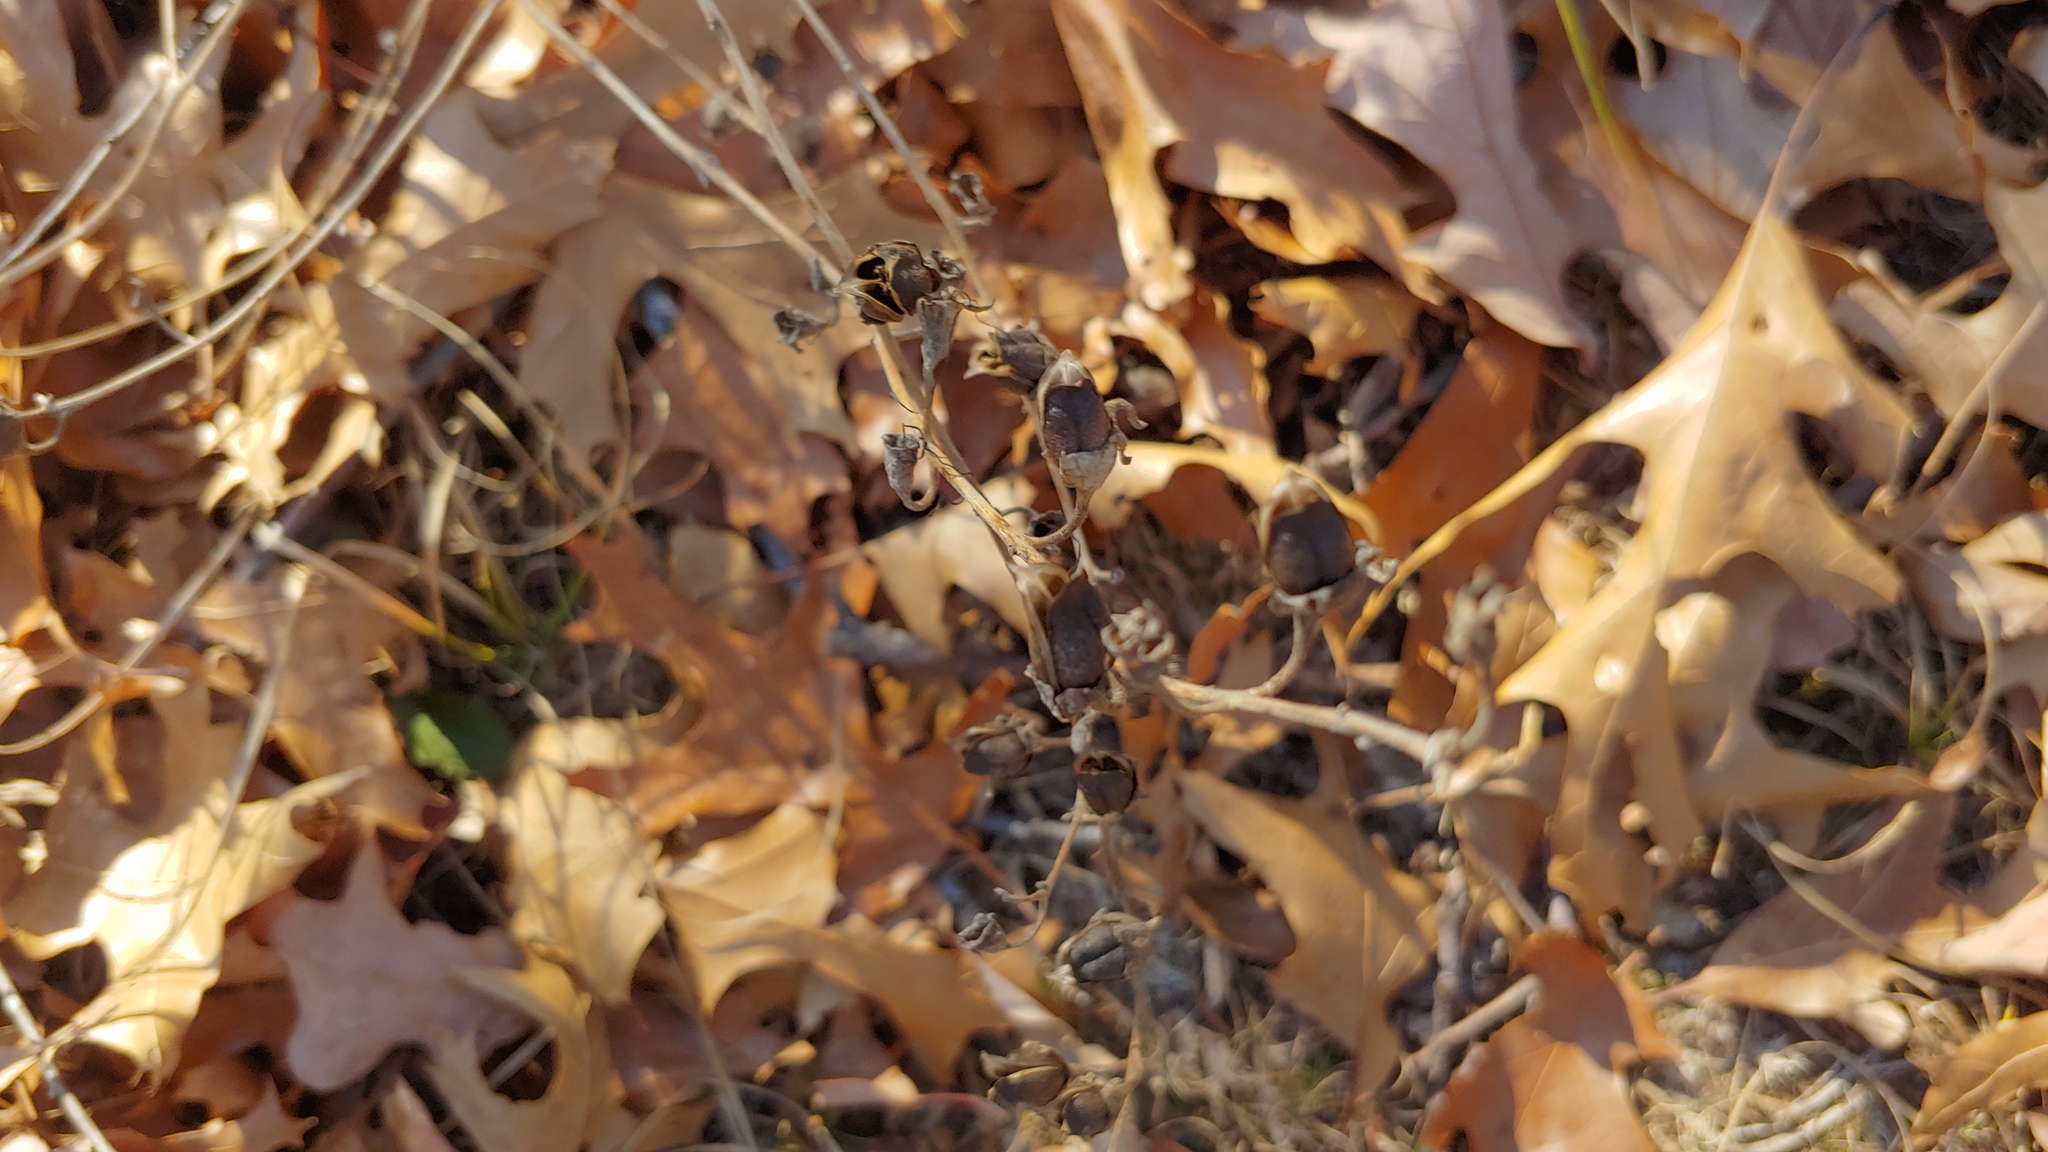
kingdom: Plantae
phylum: Tracheophyta
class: Magnoliopsida
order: Lamiales
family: Orobanchaceae
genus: Aureolaria
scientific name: Aureolaria grandiflora
